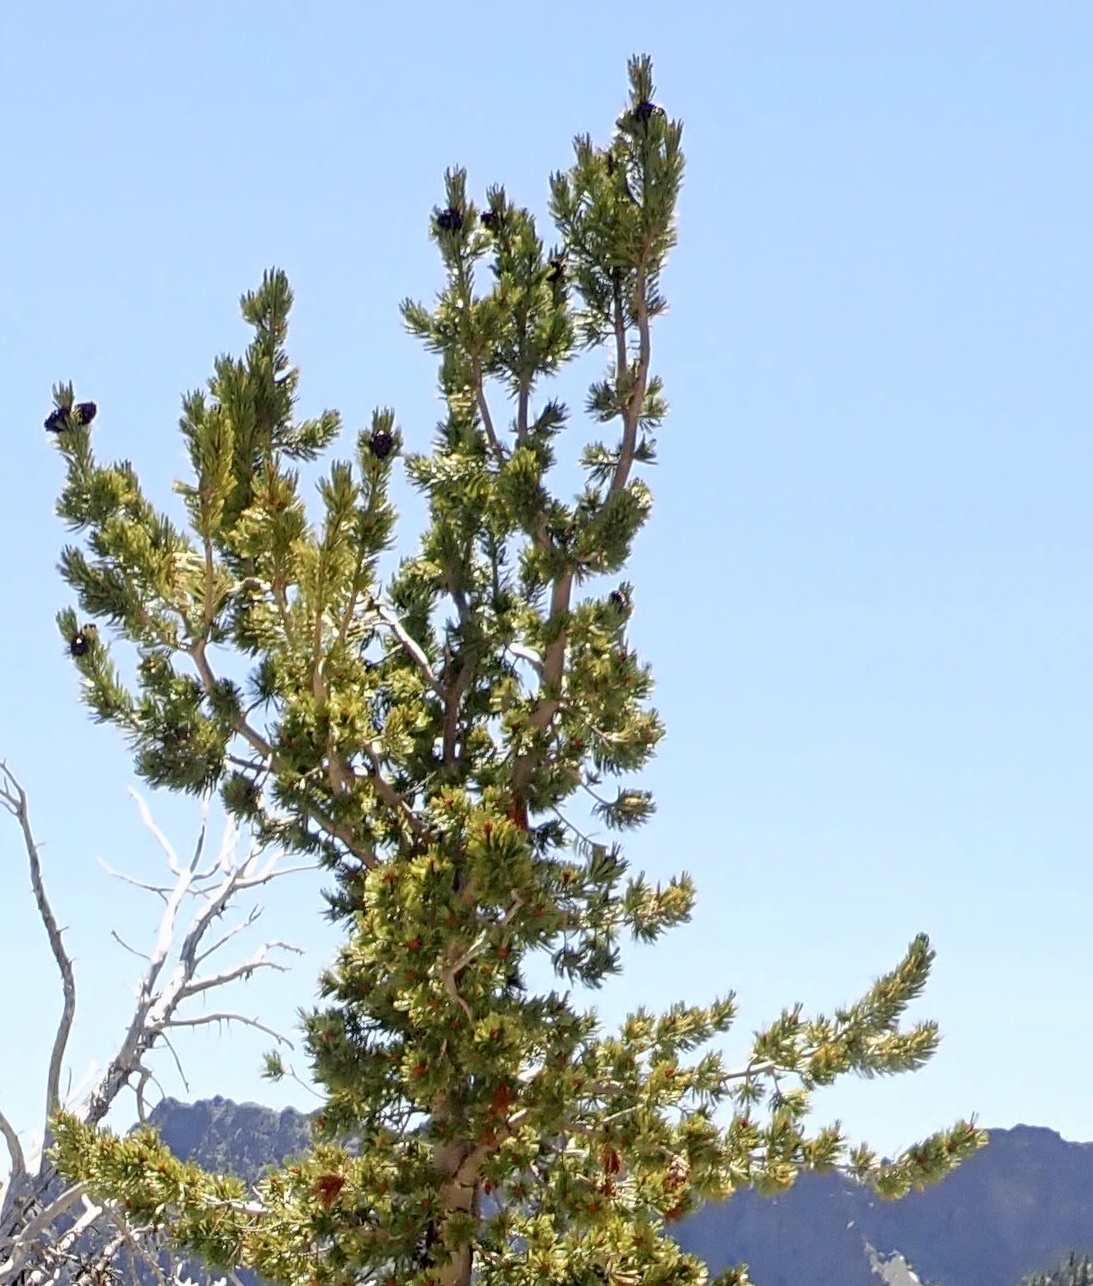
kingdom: Plantae
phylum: Tracheophyta
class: Pinopsida
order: Pinales
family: Pinaceae
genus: Pinus
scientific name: Pinus albicaulis
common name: Whitebark pine
